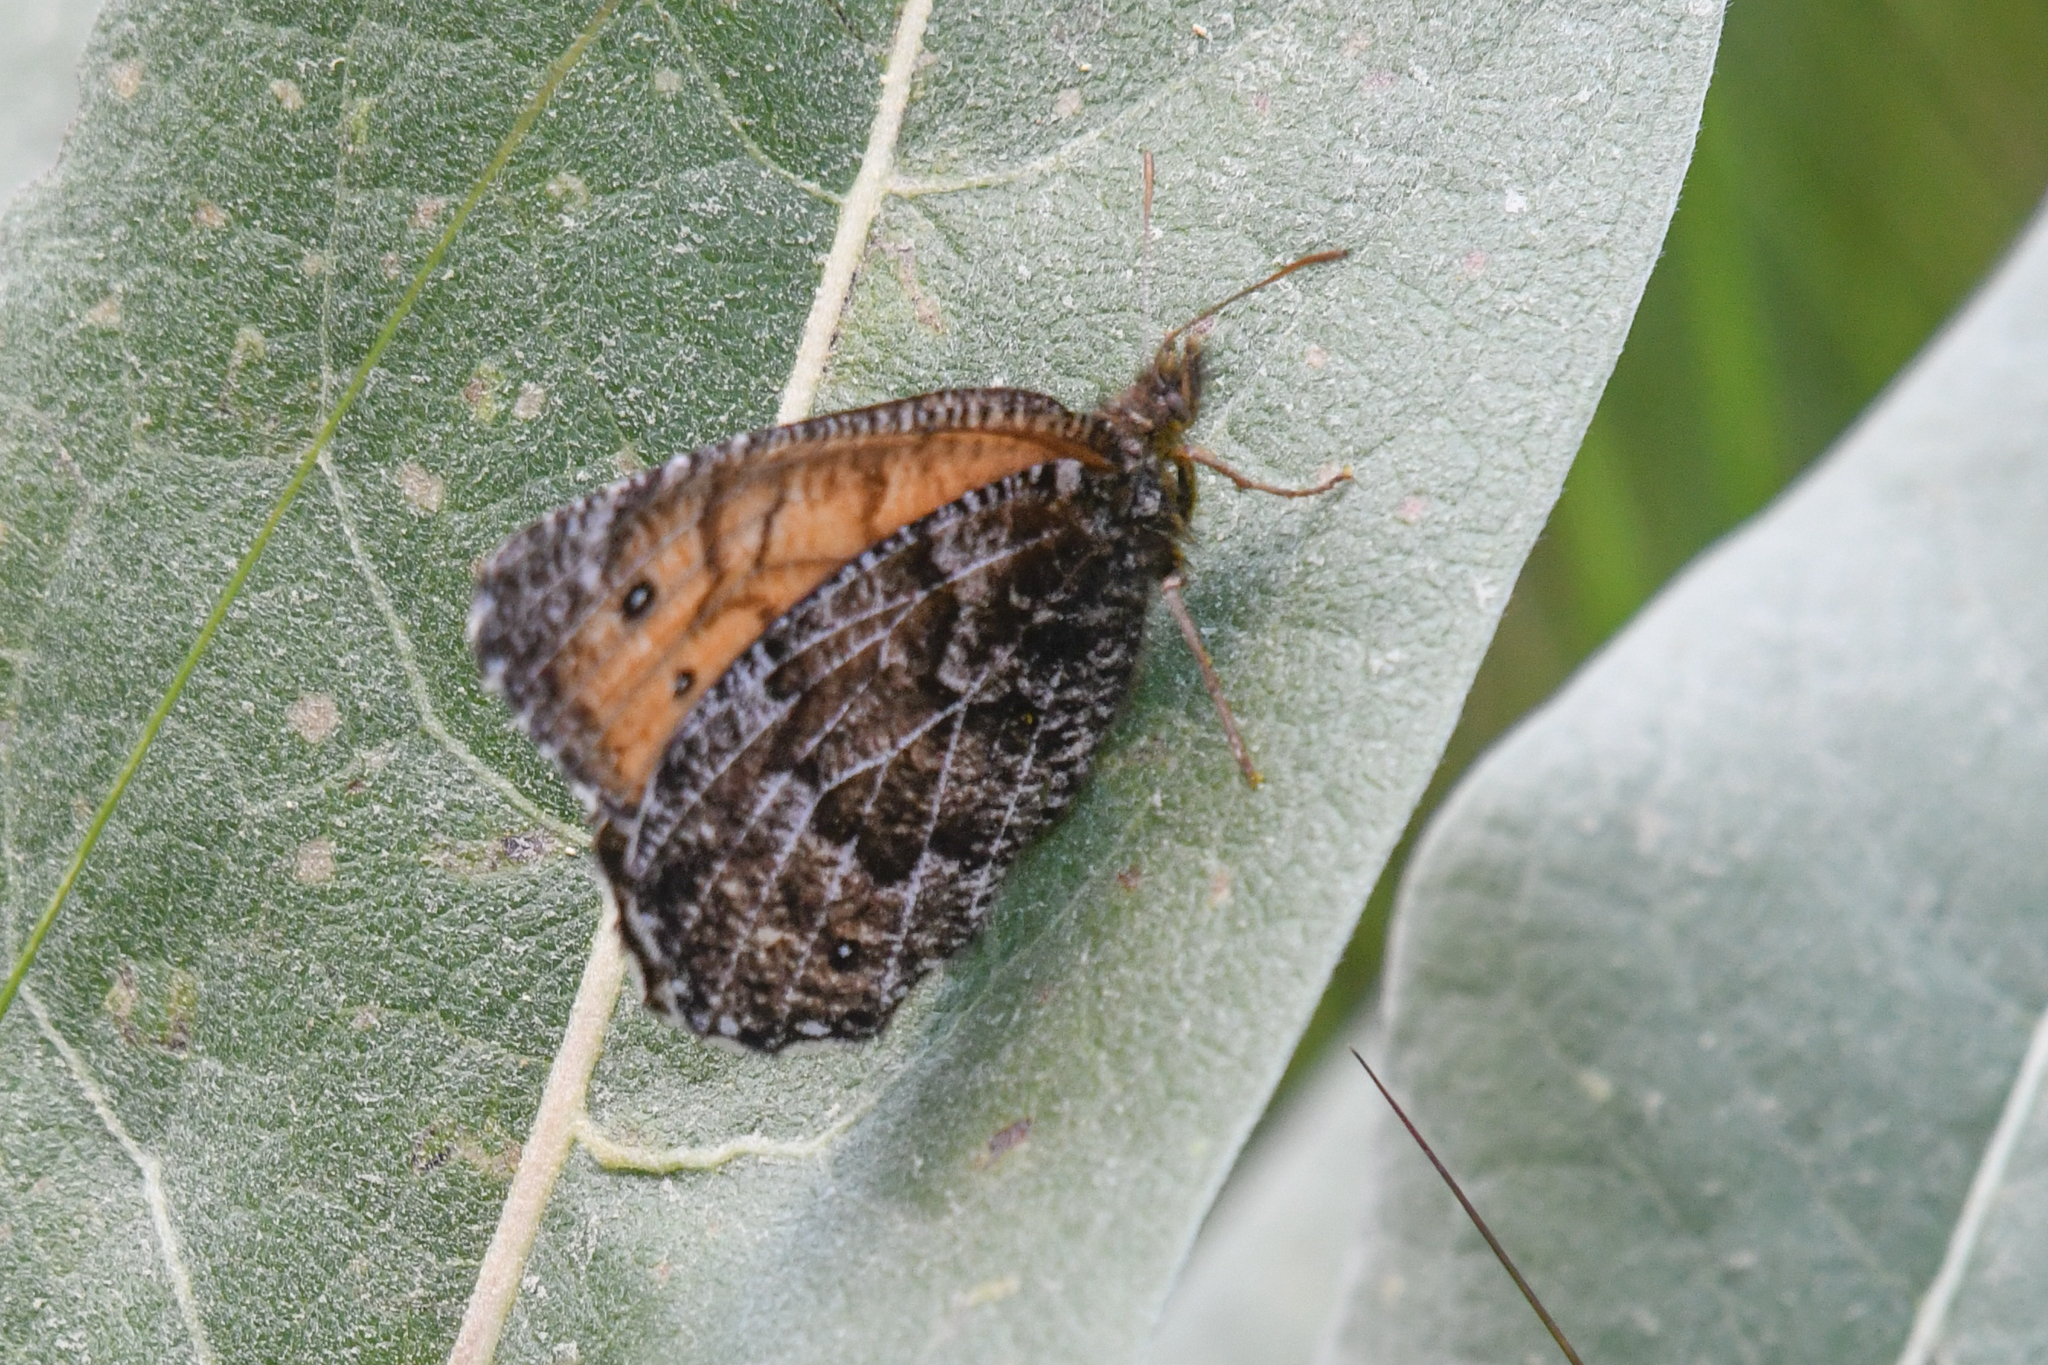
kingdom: Animalia
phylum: Arthropoda
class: Insecta
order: Lepidoptera
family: Nymphalidae
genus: Oeneis
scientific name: Oeneis chryxus
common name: Chryxus arctic
